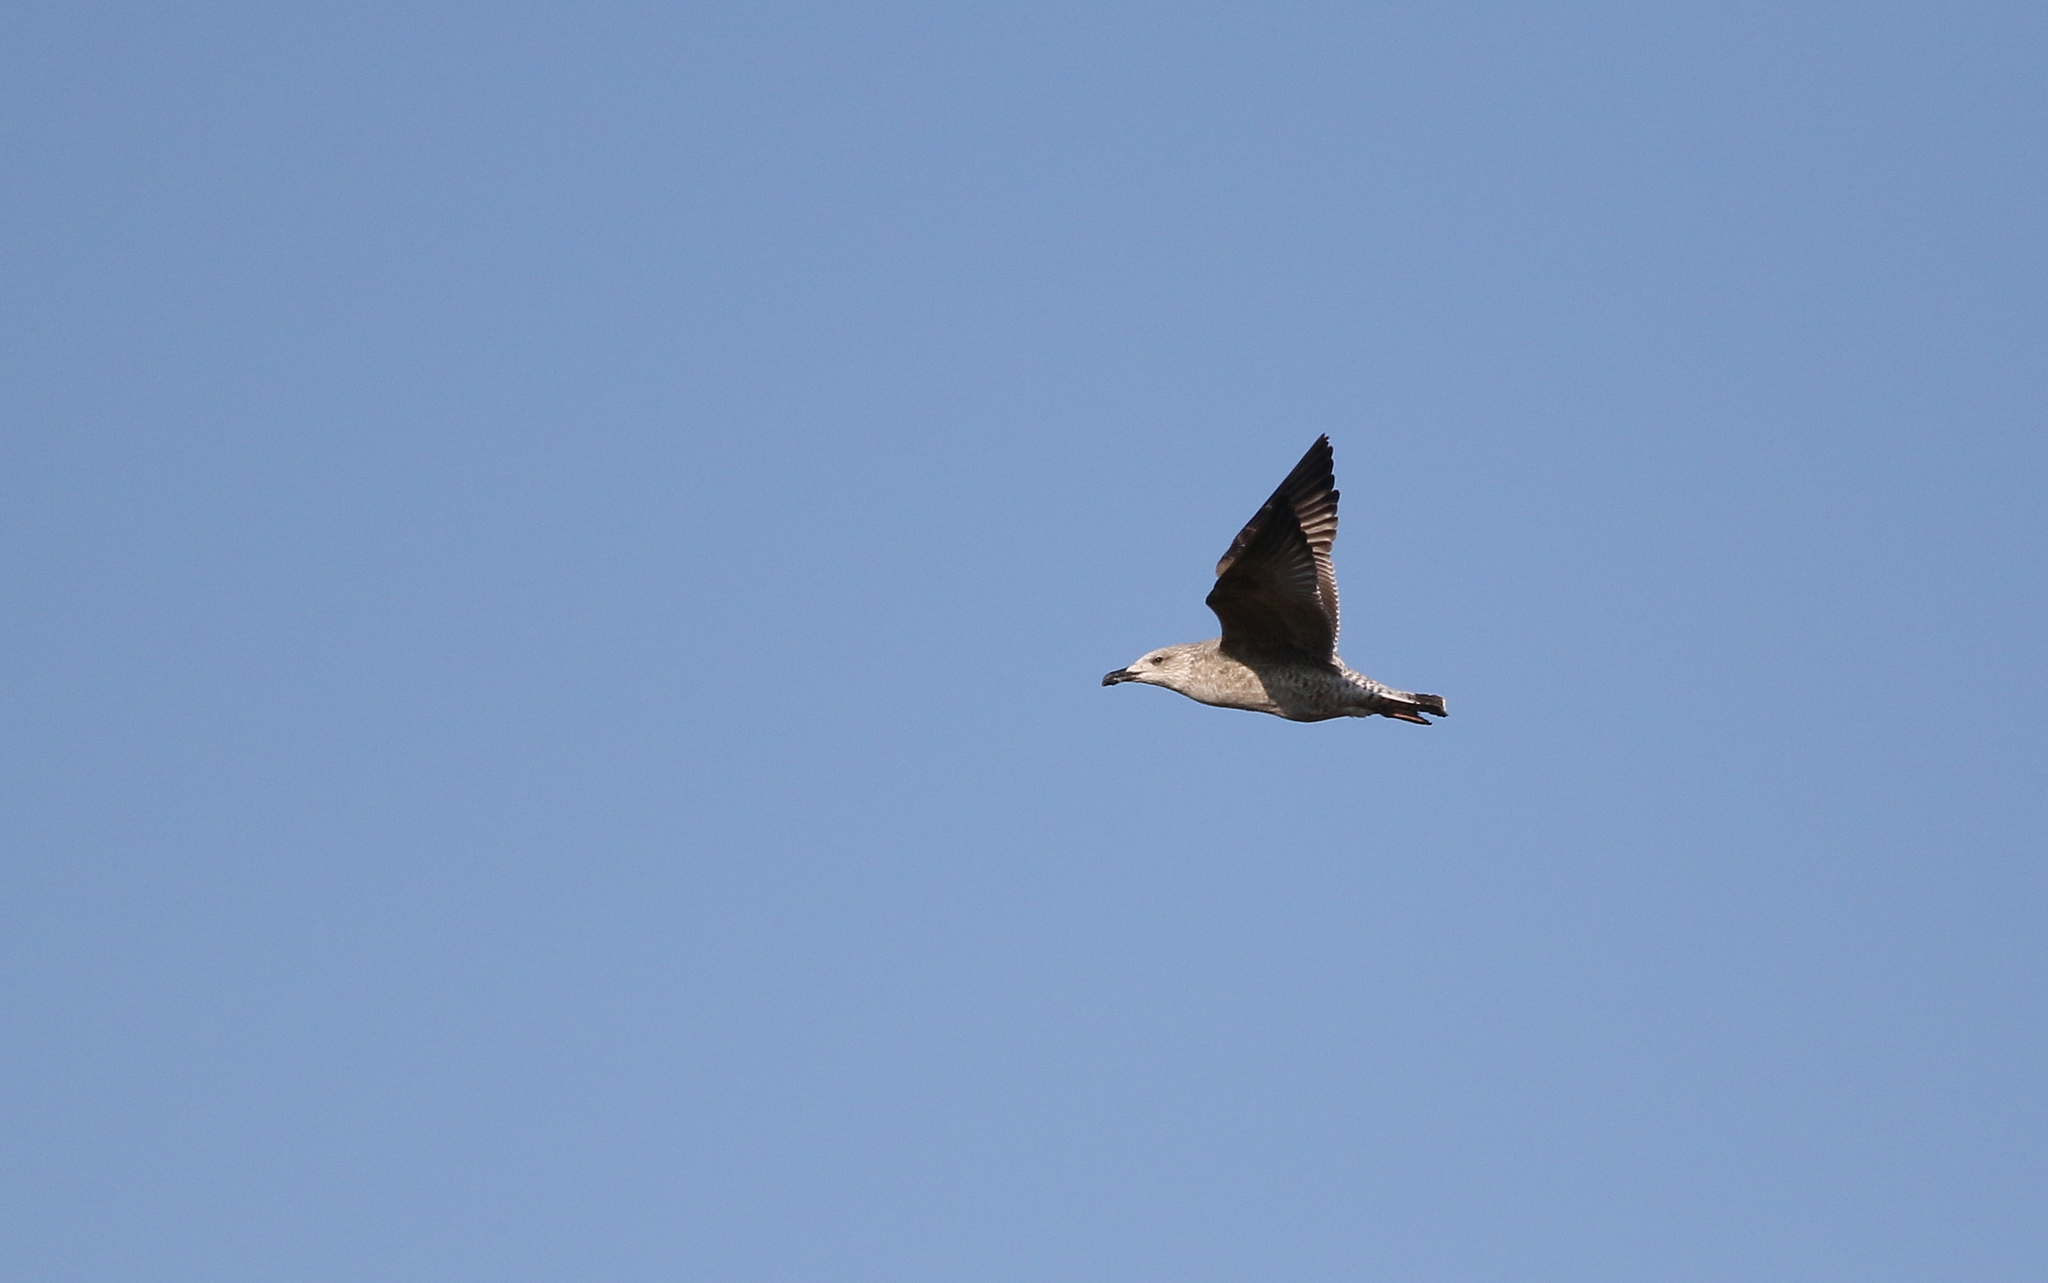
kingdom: Animalia
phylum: Chordata
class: Aves
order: Charadriiformes
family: Laridae
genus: Larus
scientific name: Larus michahellis
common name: Yellow-legged gull
